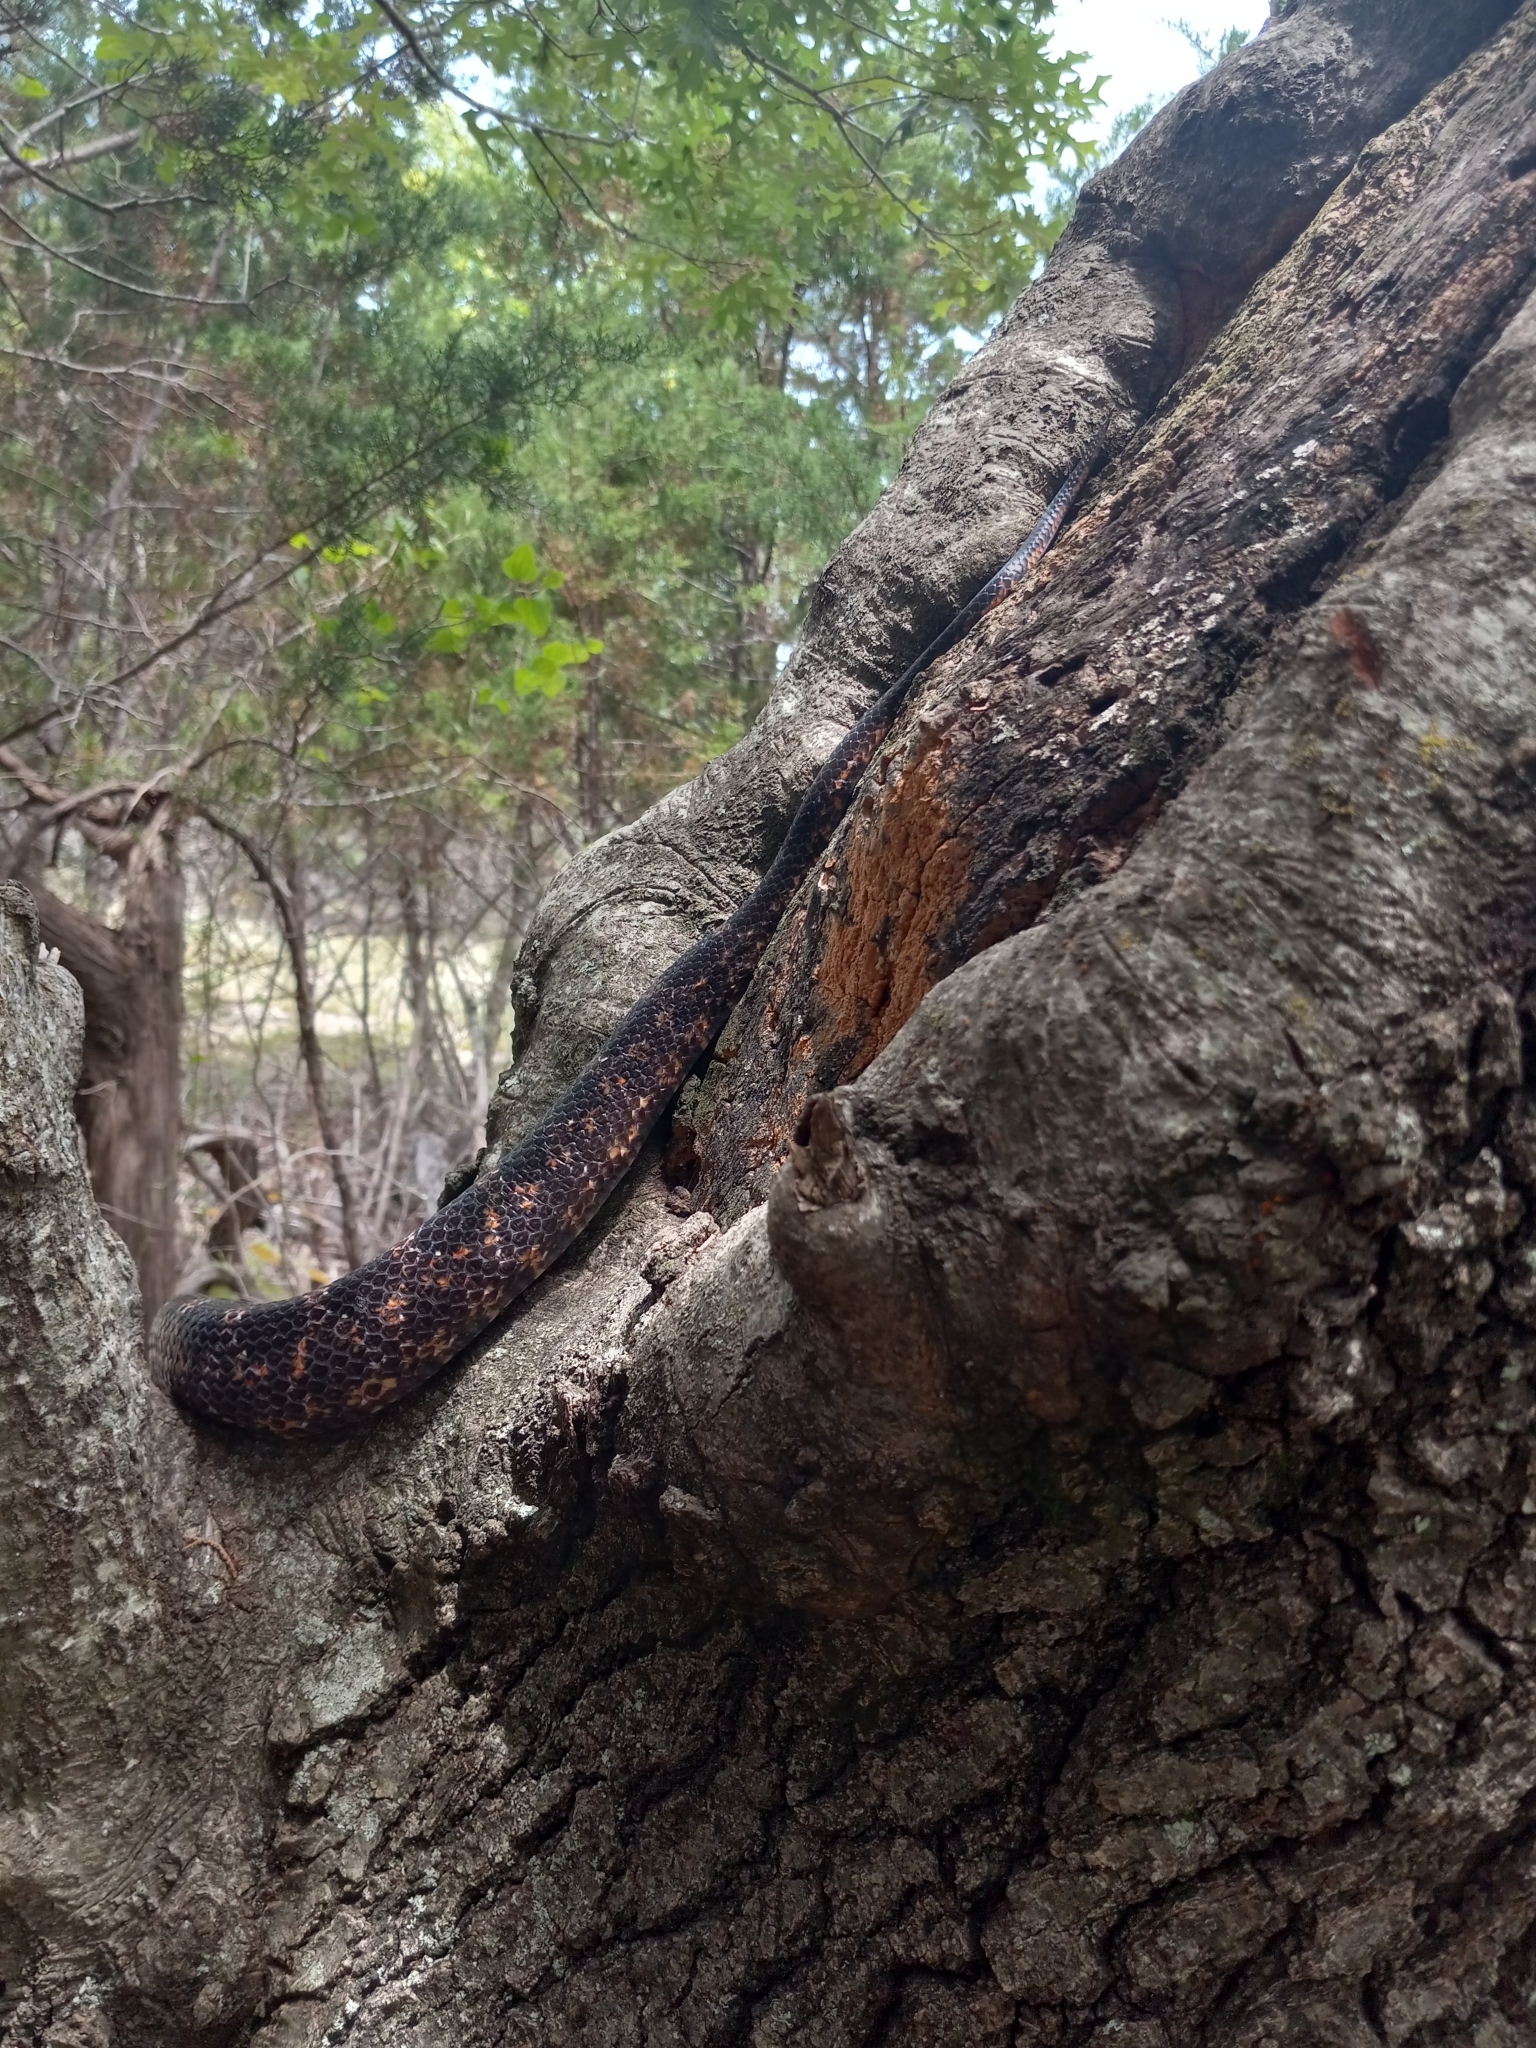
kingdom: Animalia
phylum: Chordata
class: Squamata
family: Colubridae
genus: Pantherophis
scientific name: Pantherophis obsoletus
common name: Black rat snake
